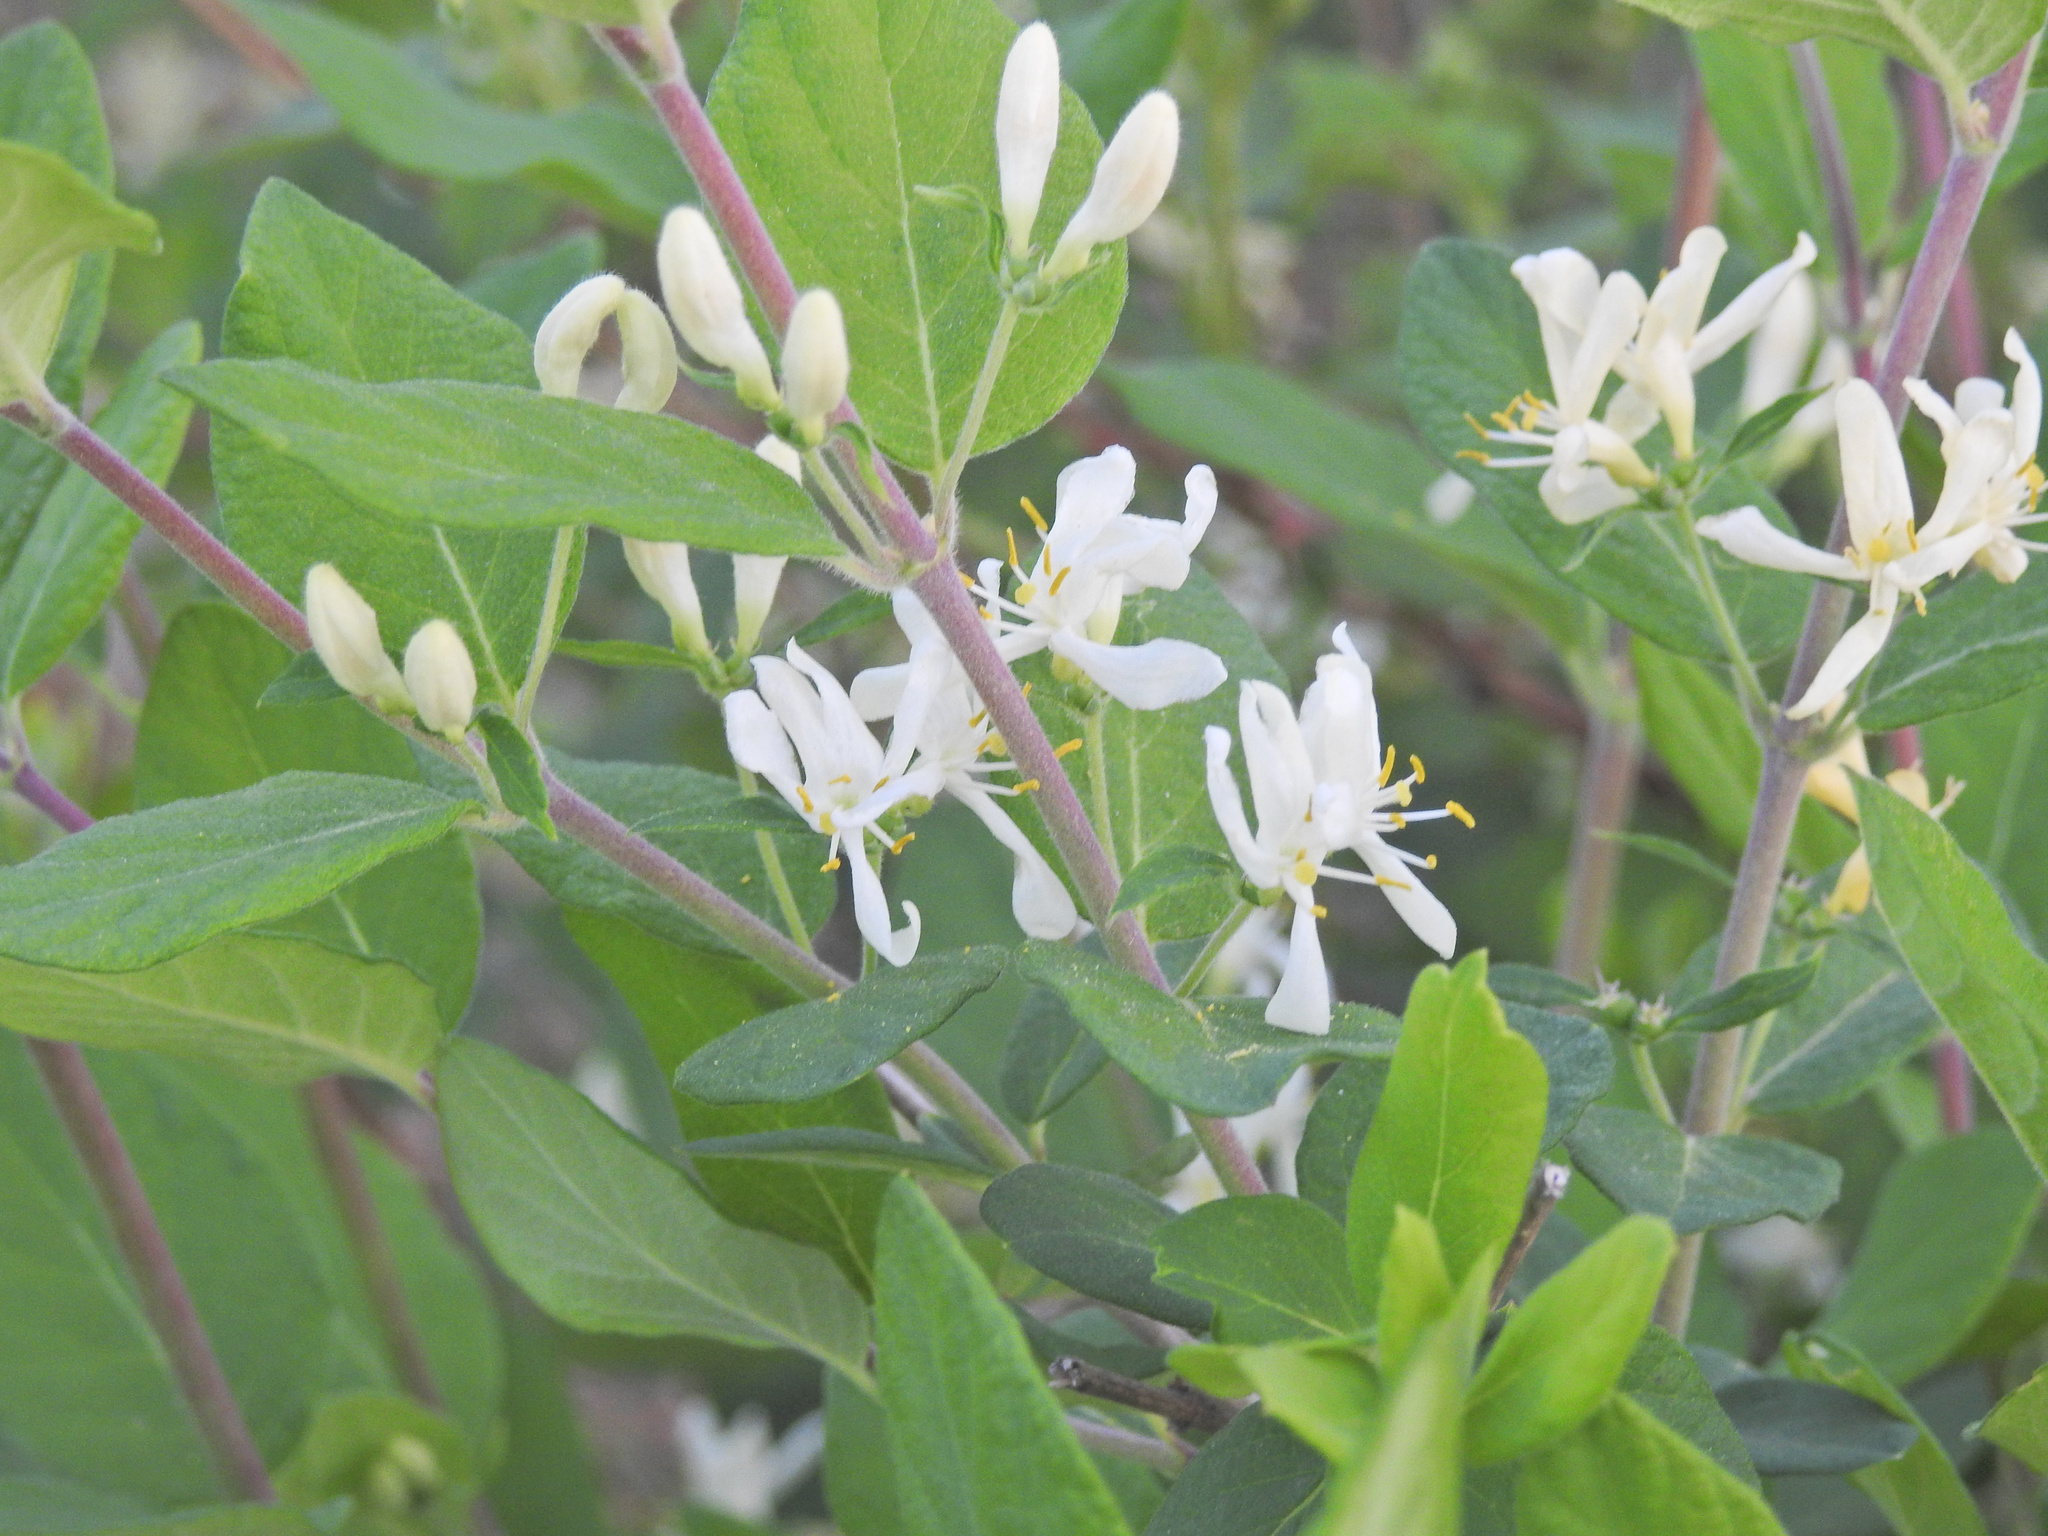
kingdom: Plantae
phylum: Tracheophyta
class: Magnoliopsida
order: Dipsacales
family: Caprifoliaceae
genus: Lonicera
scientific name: Lonicera morrowii
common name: Morrow's honeysuckle
